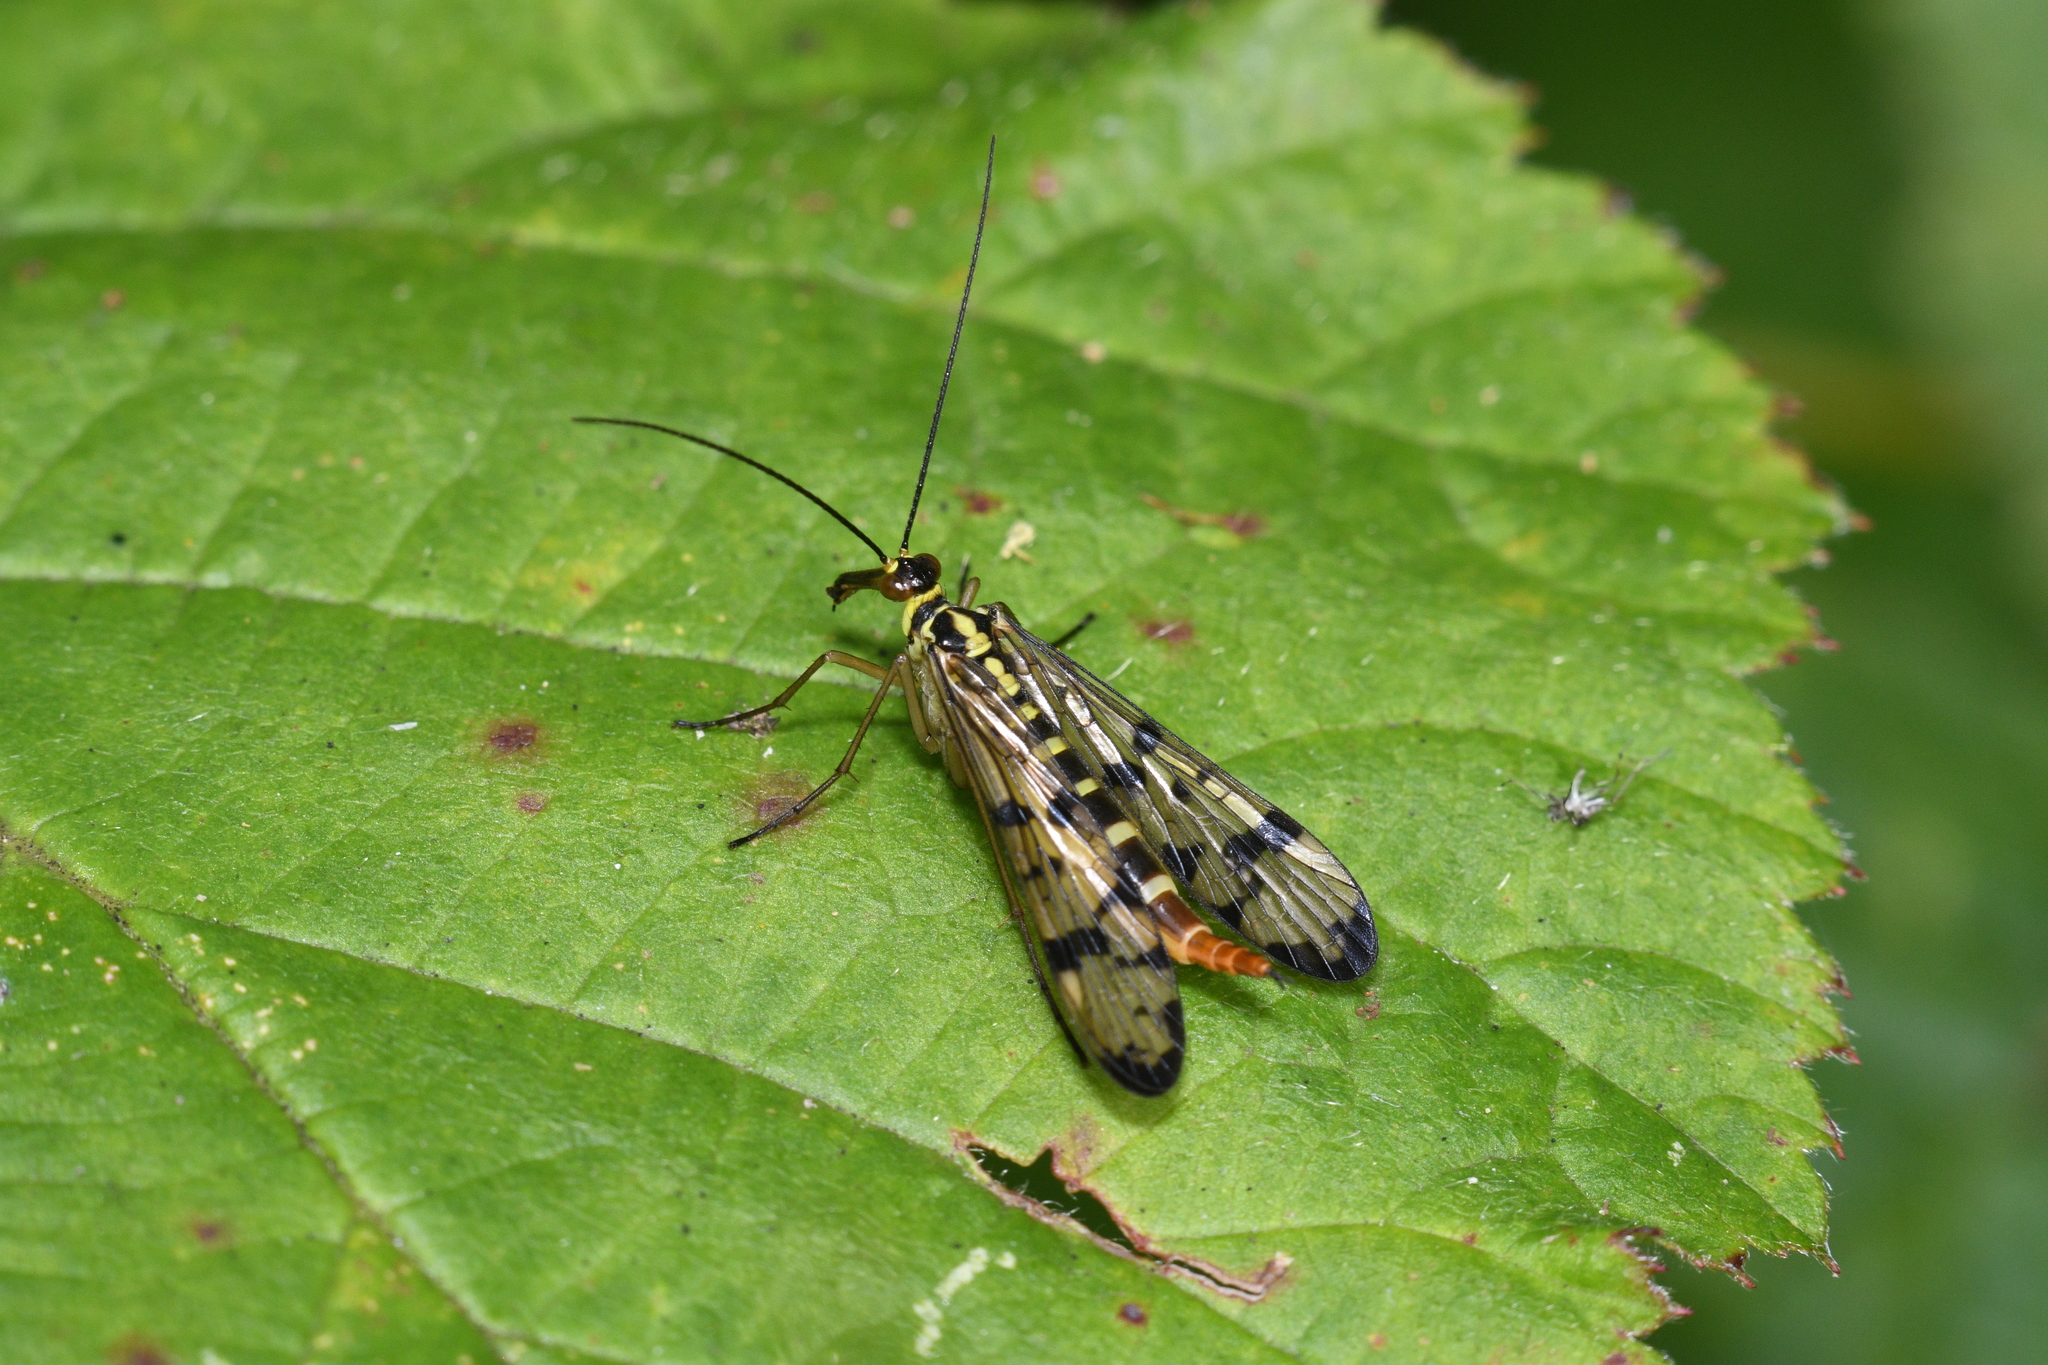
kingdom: Animalia
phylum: Arthropoda
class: Insecta
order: Mecoptera
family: Panorpidae
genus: Panorpa
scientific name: Panorpa germanica
